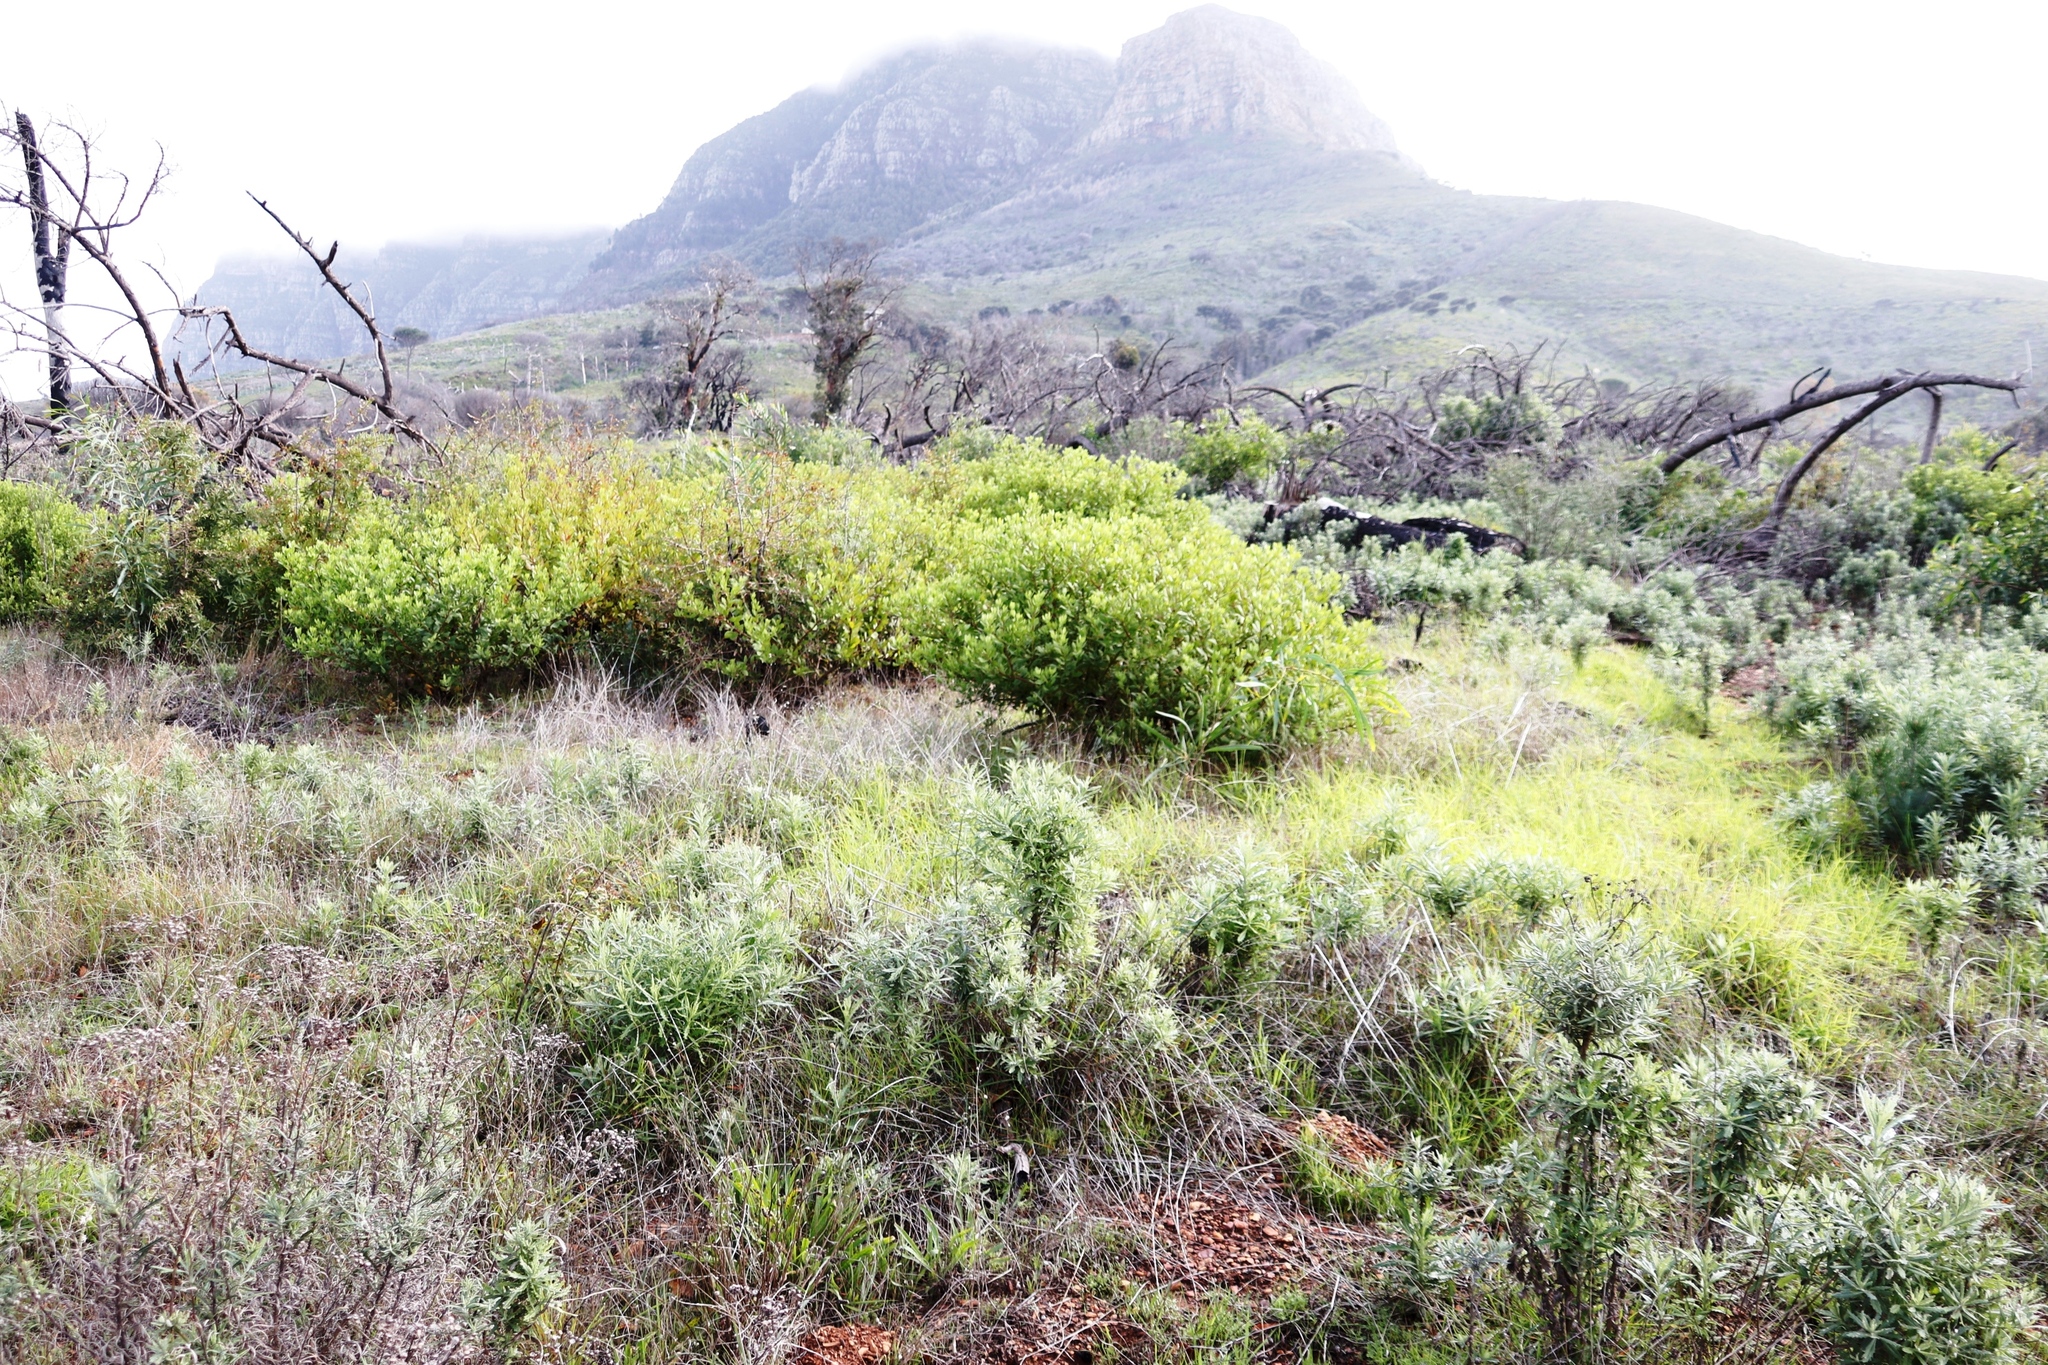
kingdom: Plantae
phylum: Tracheophyta
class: Magnoliopsida
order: Asterales
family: Asteraceae
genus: Osteospermum
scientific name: Osteospermum moniliferum
